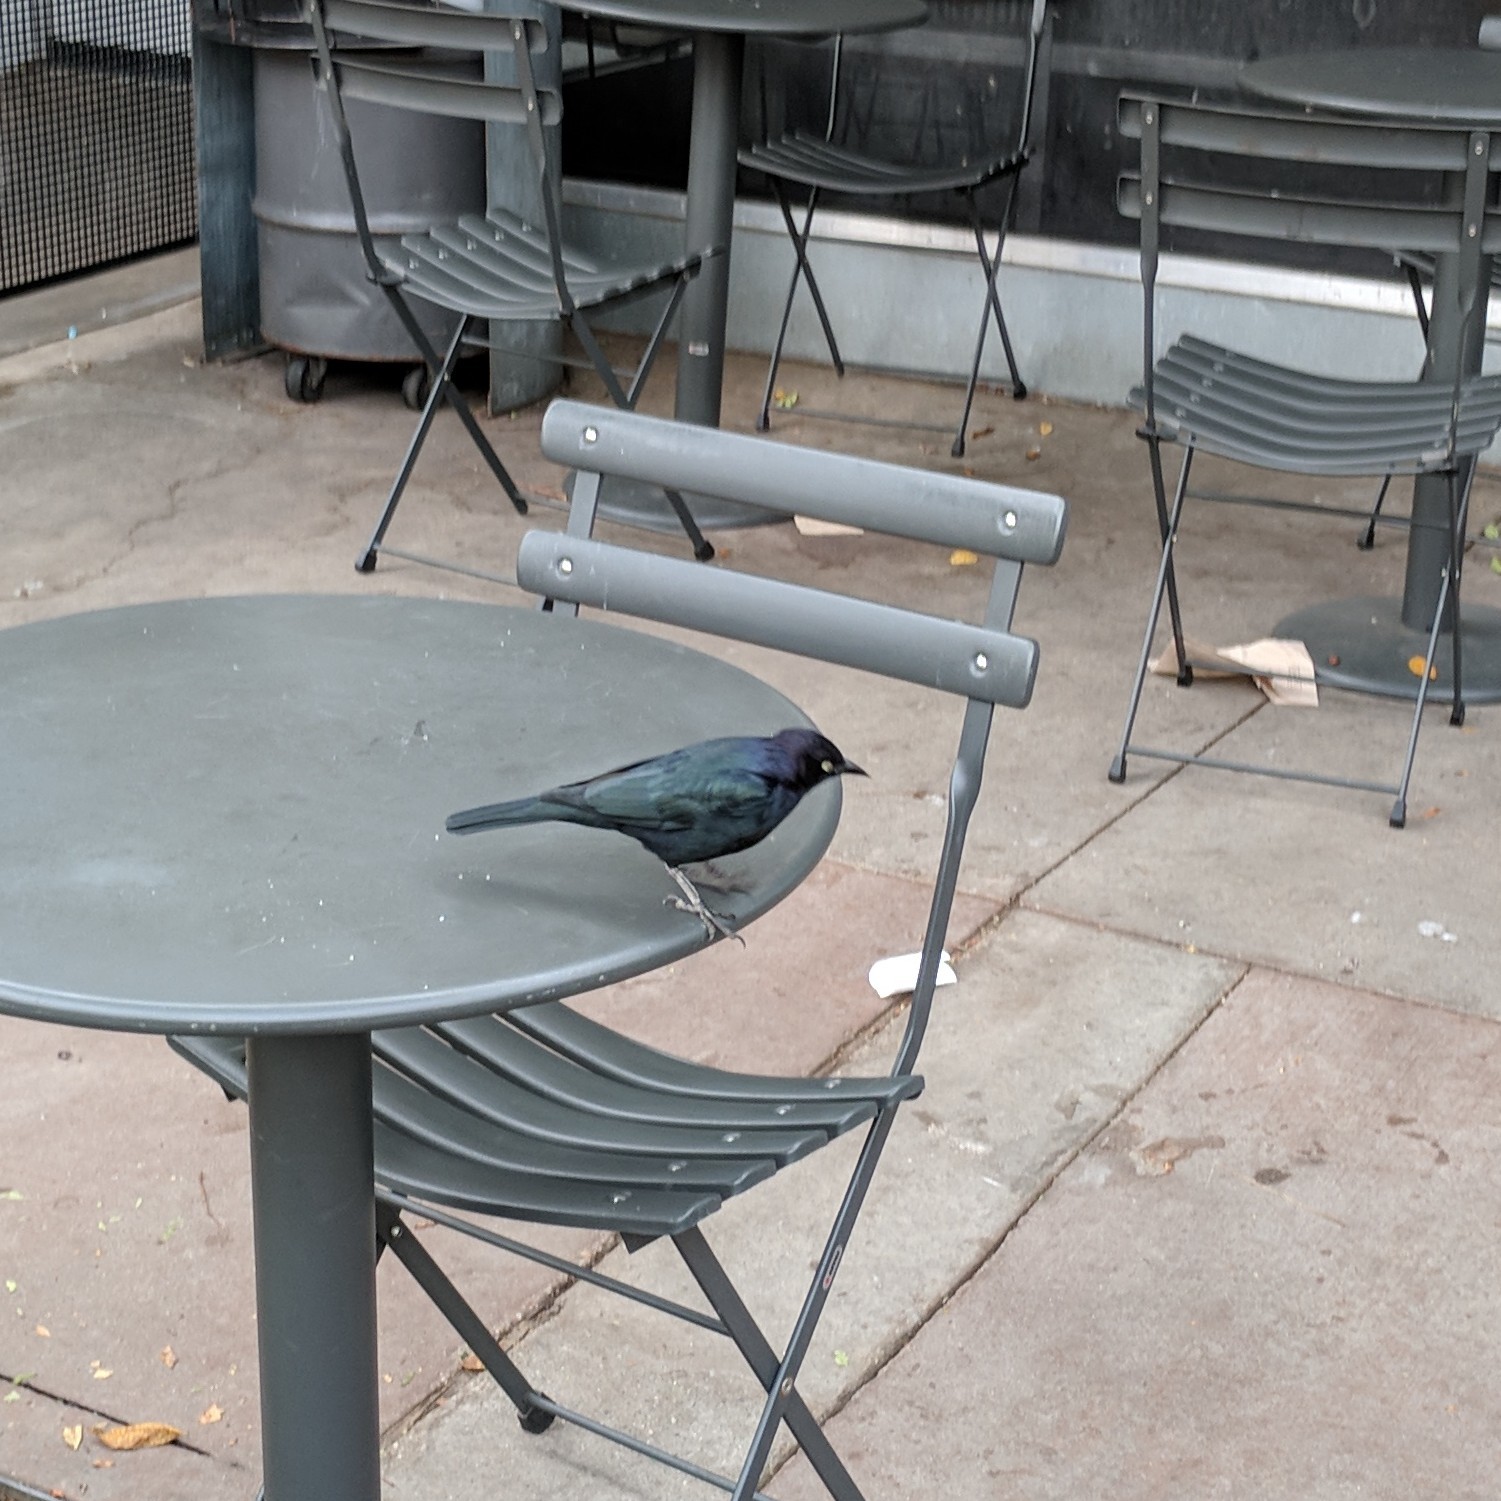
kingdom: Animalia
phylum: Chordata
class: Aves
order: Passeriformes
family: Icteridae
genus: Euphagus
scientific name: Euphagus cyanocephalus
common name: Brewer's blackbird
